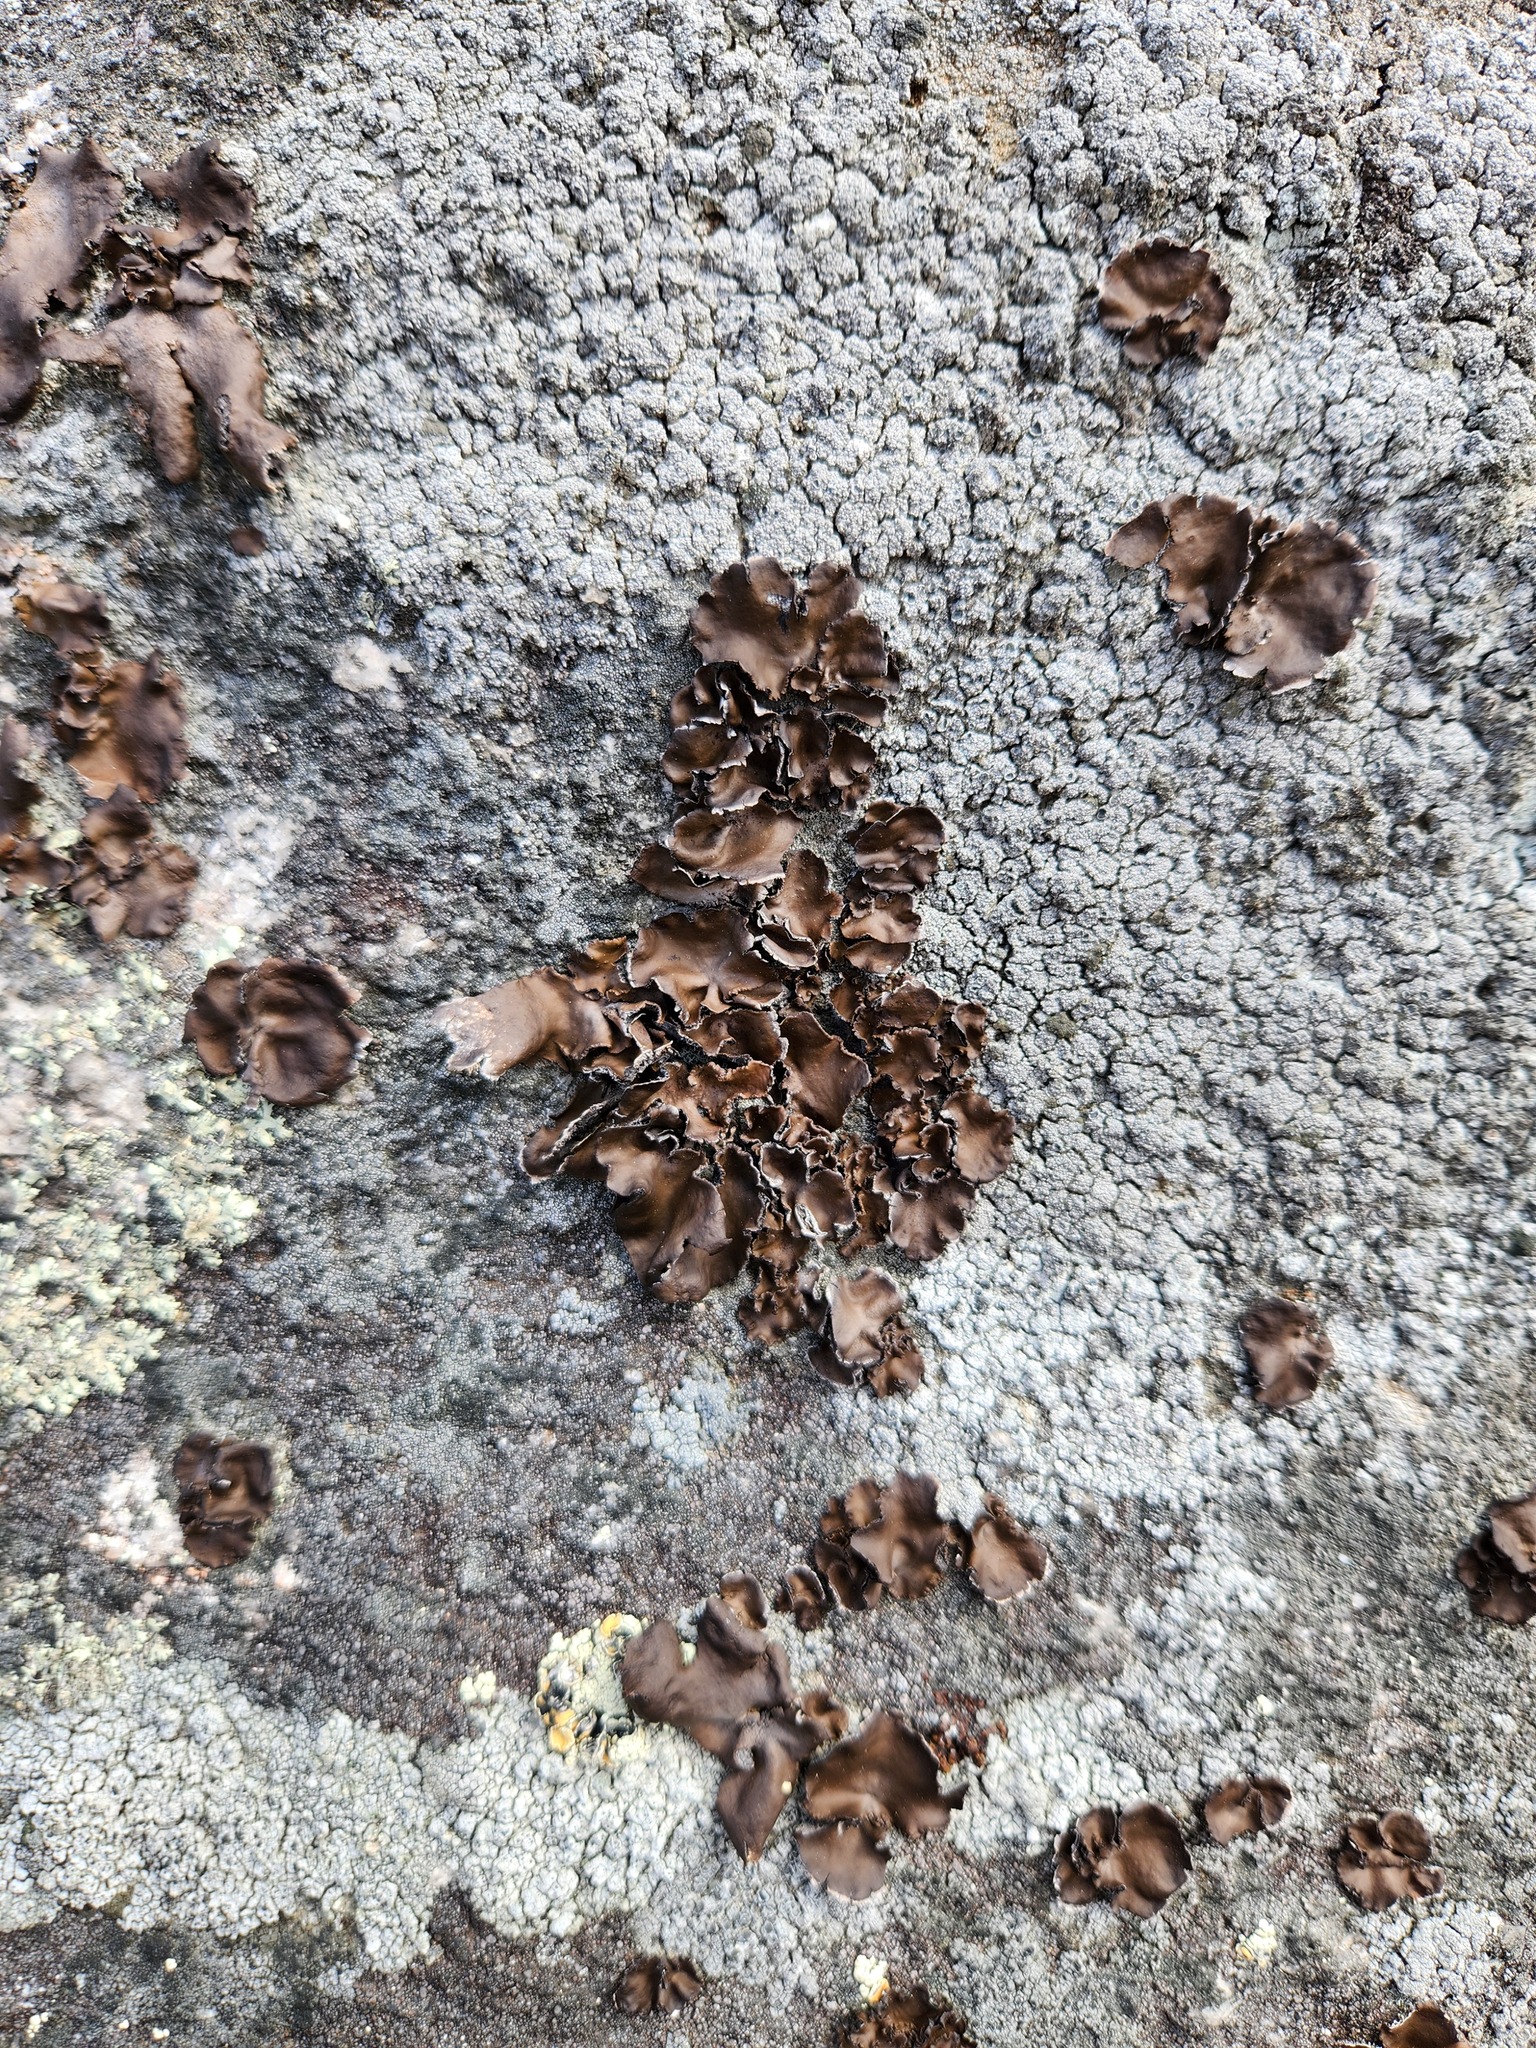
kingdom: Fungi
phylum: Ascomycota
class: Lecanoromycetes
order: Umbilicariales
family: Umbilicariaceae
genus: Umbilicaria
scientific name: Umbilicaria muhlenbergii
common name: Lesser rocktripe
